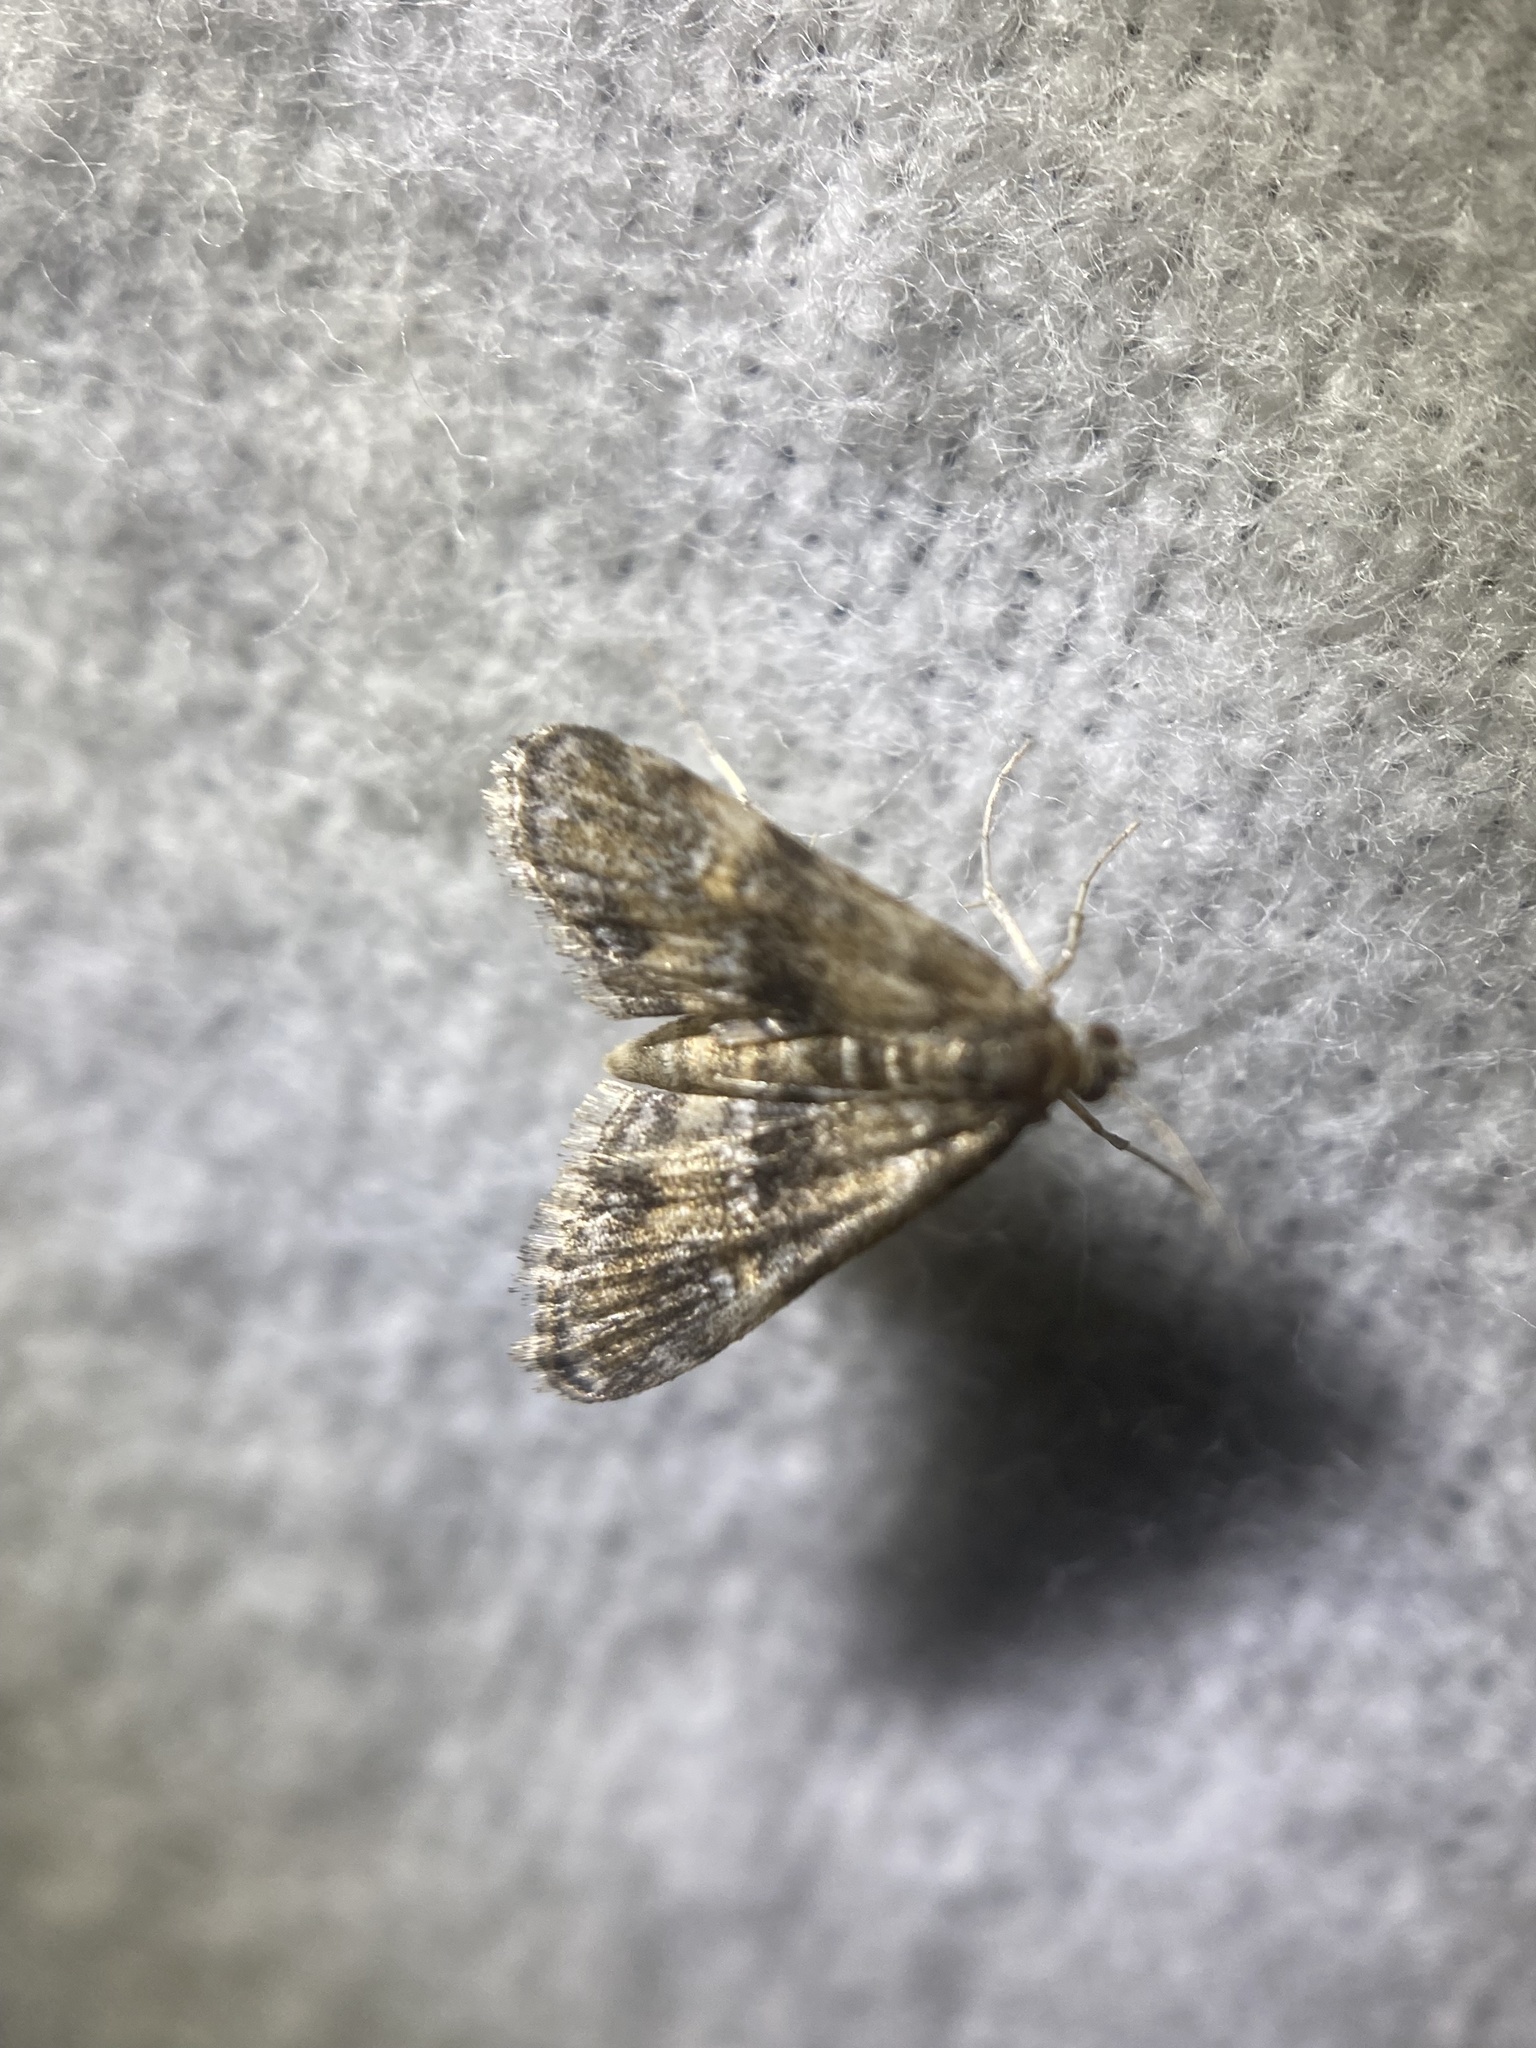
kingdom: Animalia
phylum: Arthropoda
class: Insecta
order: Lepidoptera
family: Crambidae
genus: Elophila
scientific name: Elophila obliteralis
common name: Waterlily leafcutter moth
